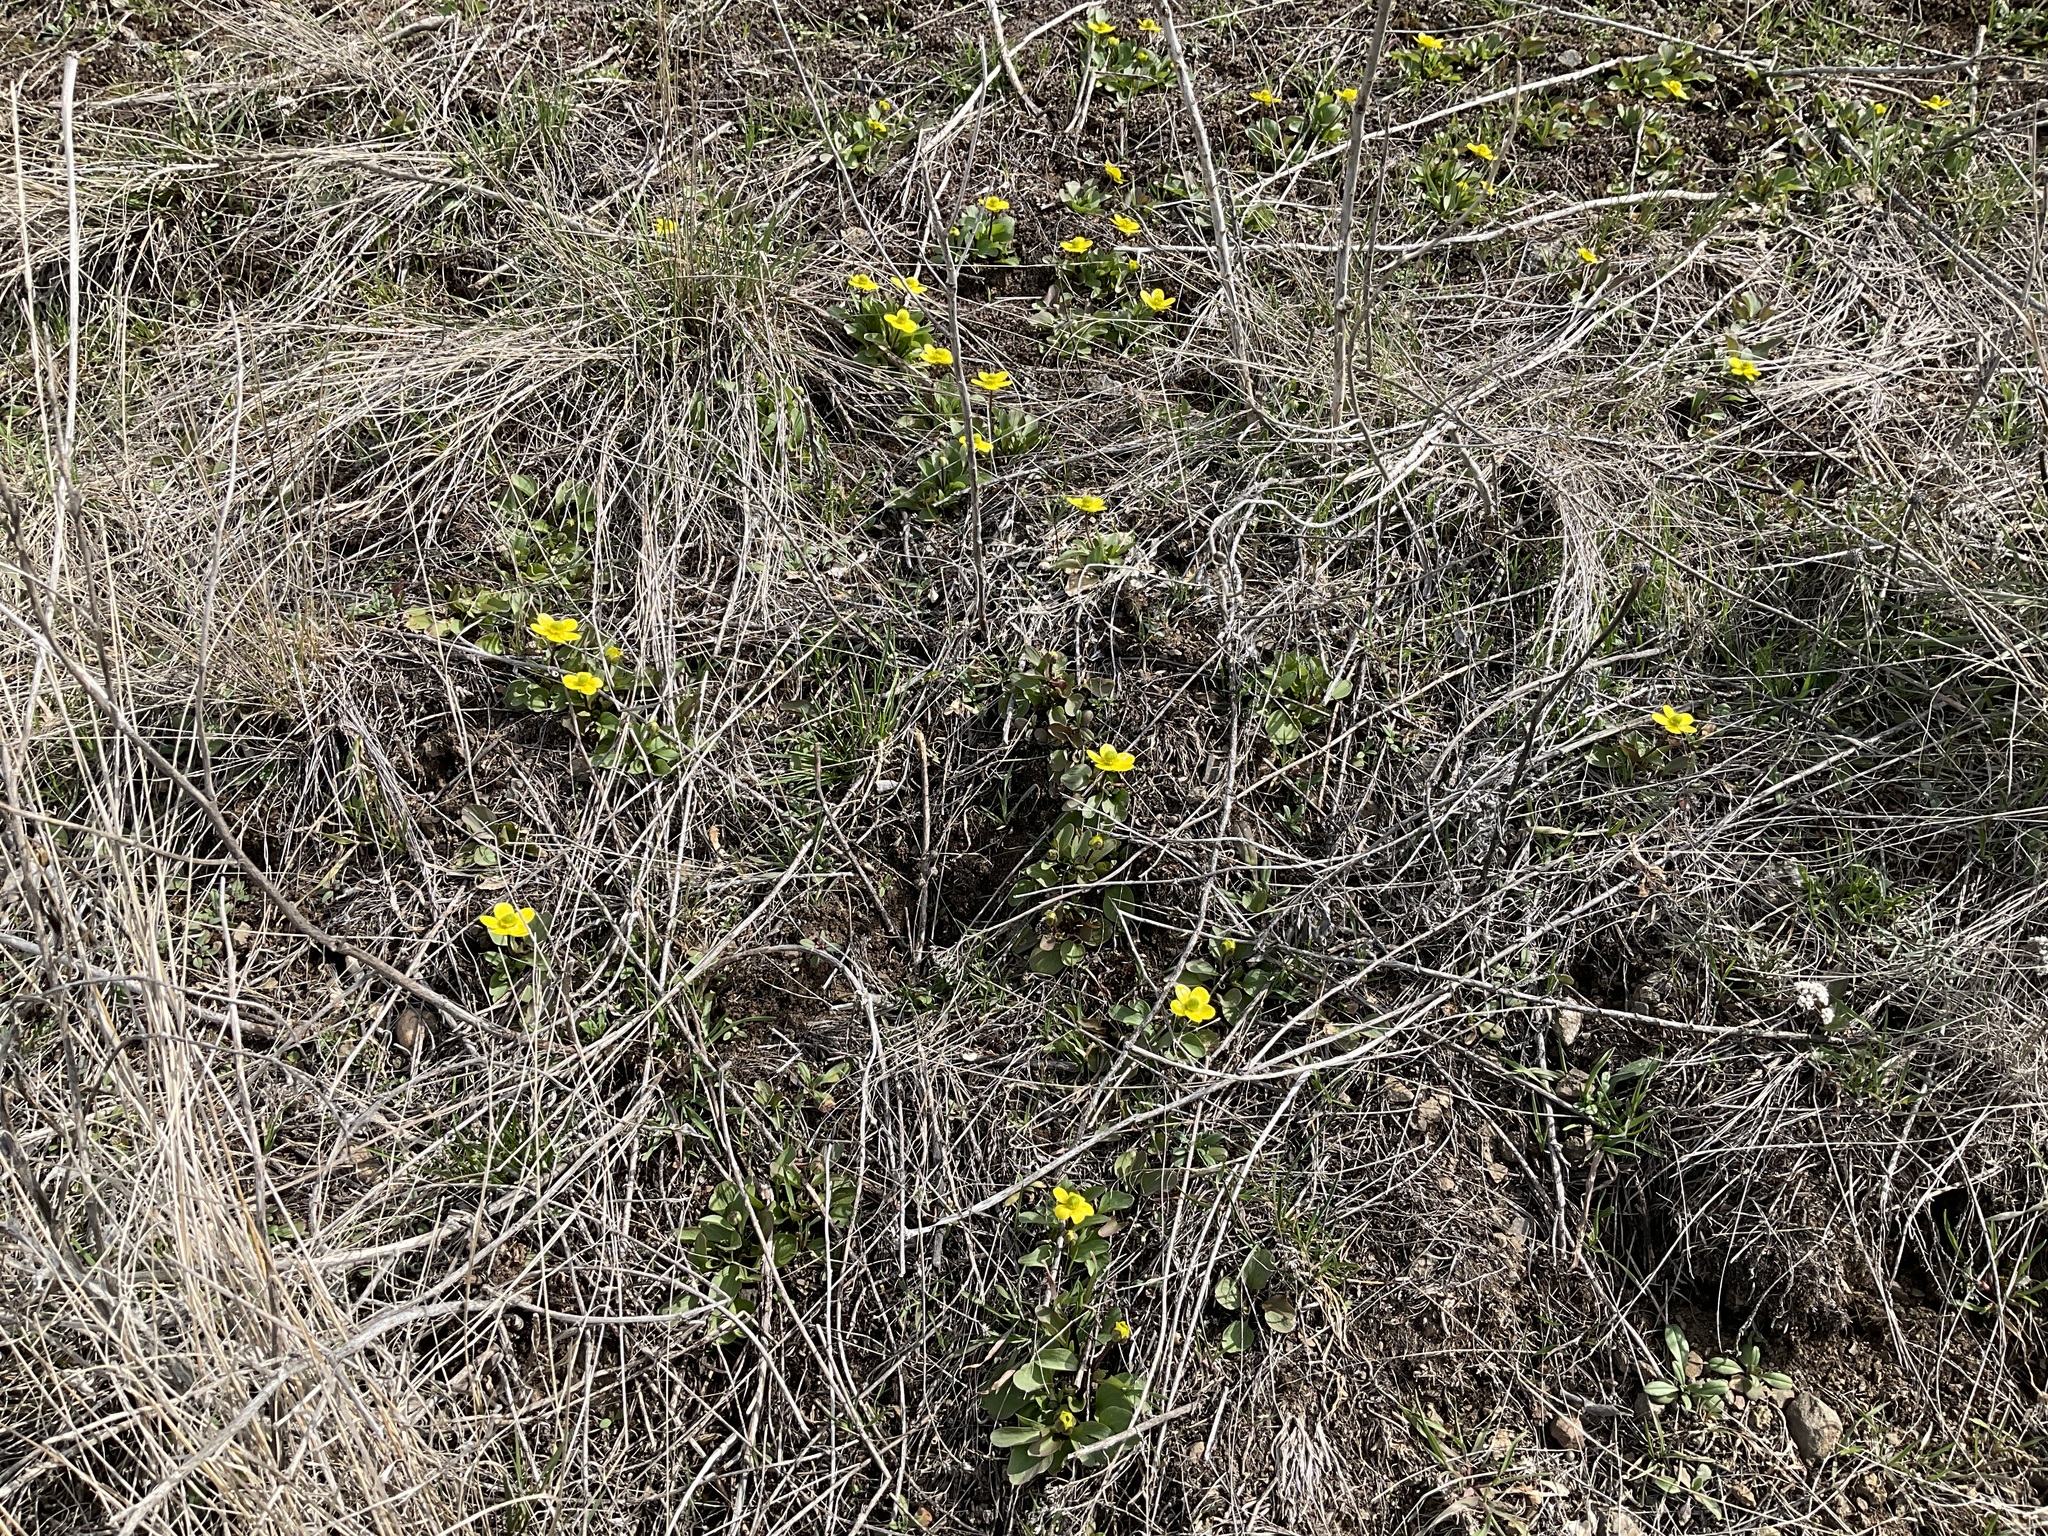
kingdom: Plantae
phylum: Tracheophyta
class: Magnoliopsida
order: Ranunculales
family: Ranunculaceae
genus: Ranunculus
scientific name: Ranunculus glaberrimus
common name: Sagebrush buttercup
